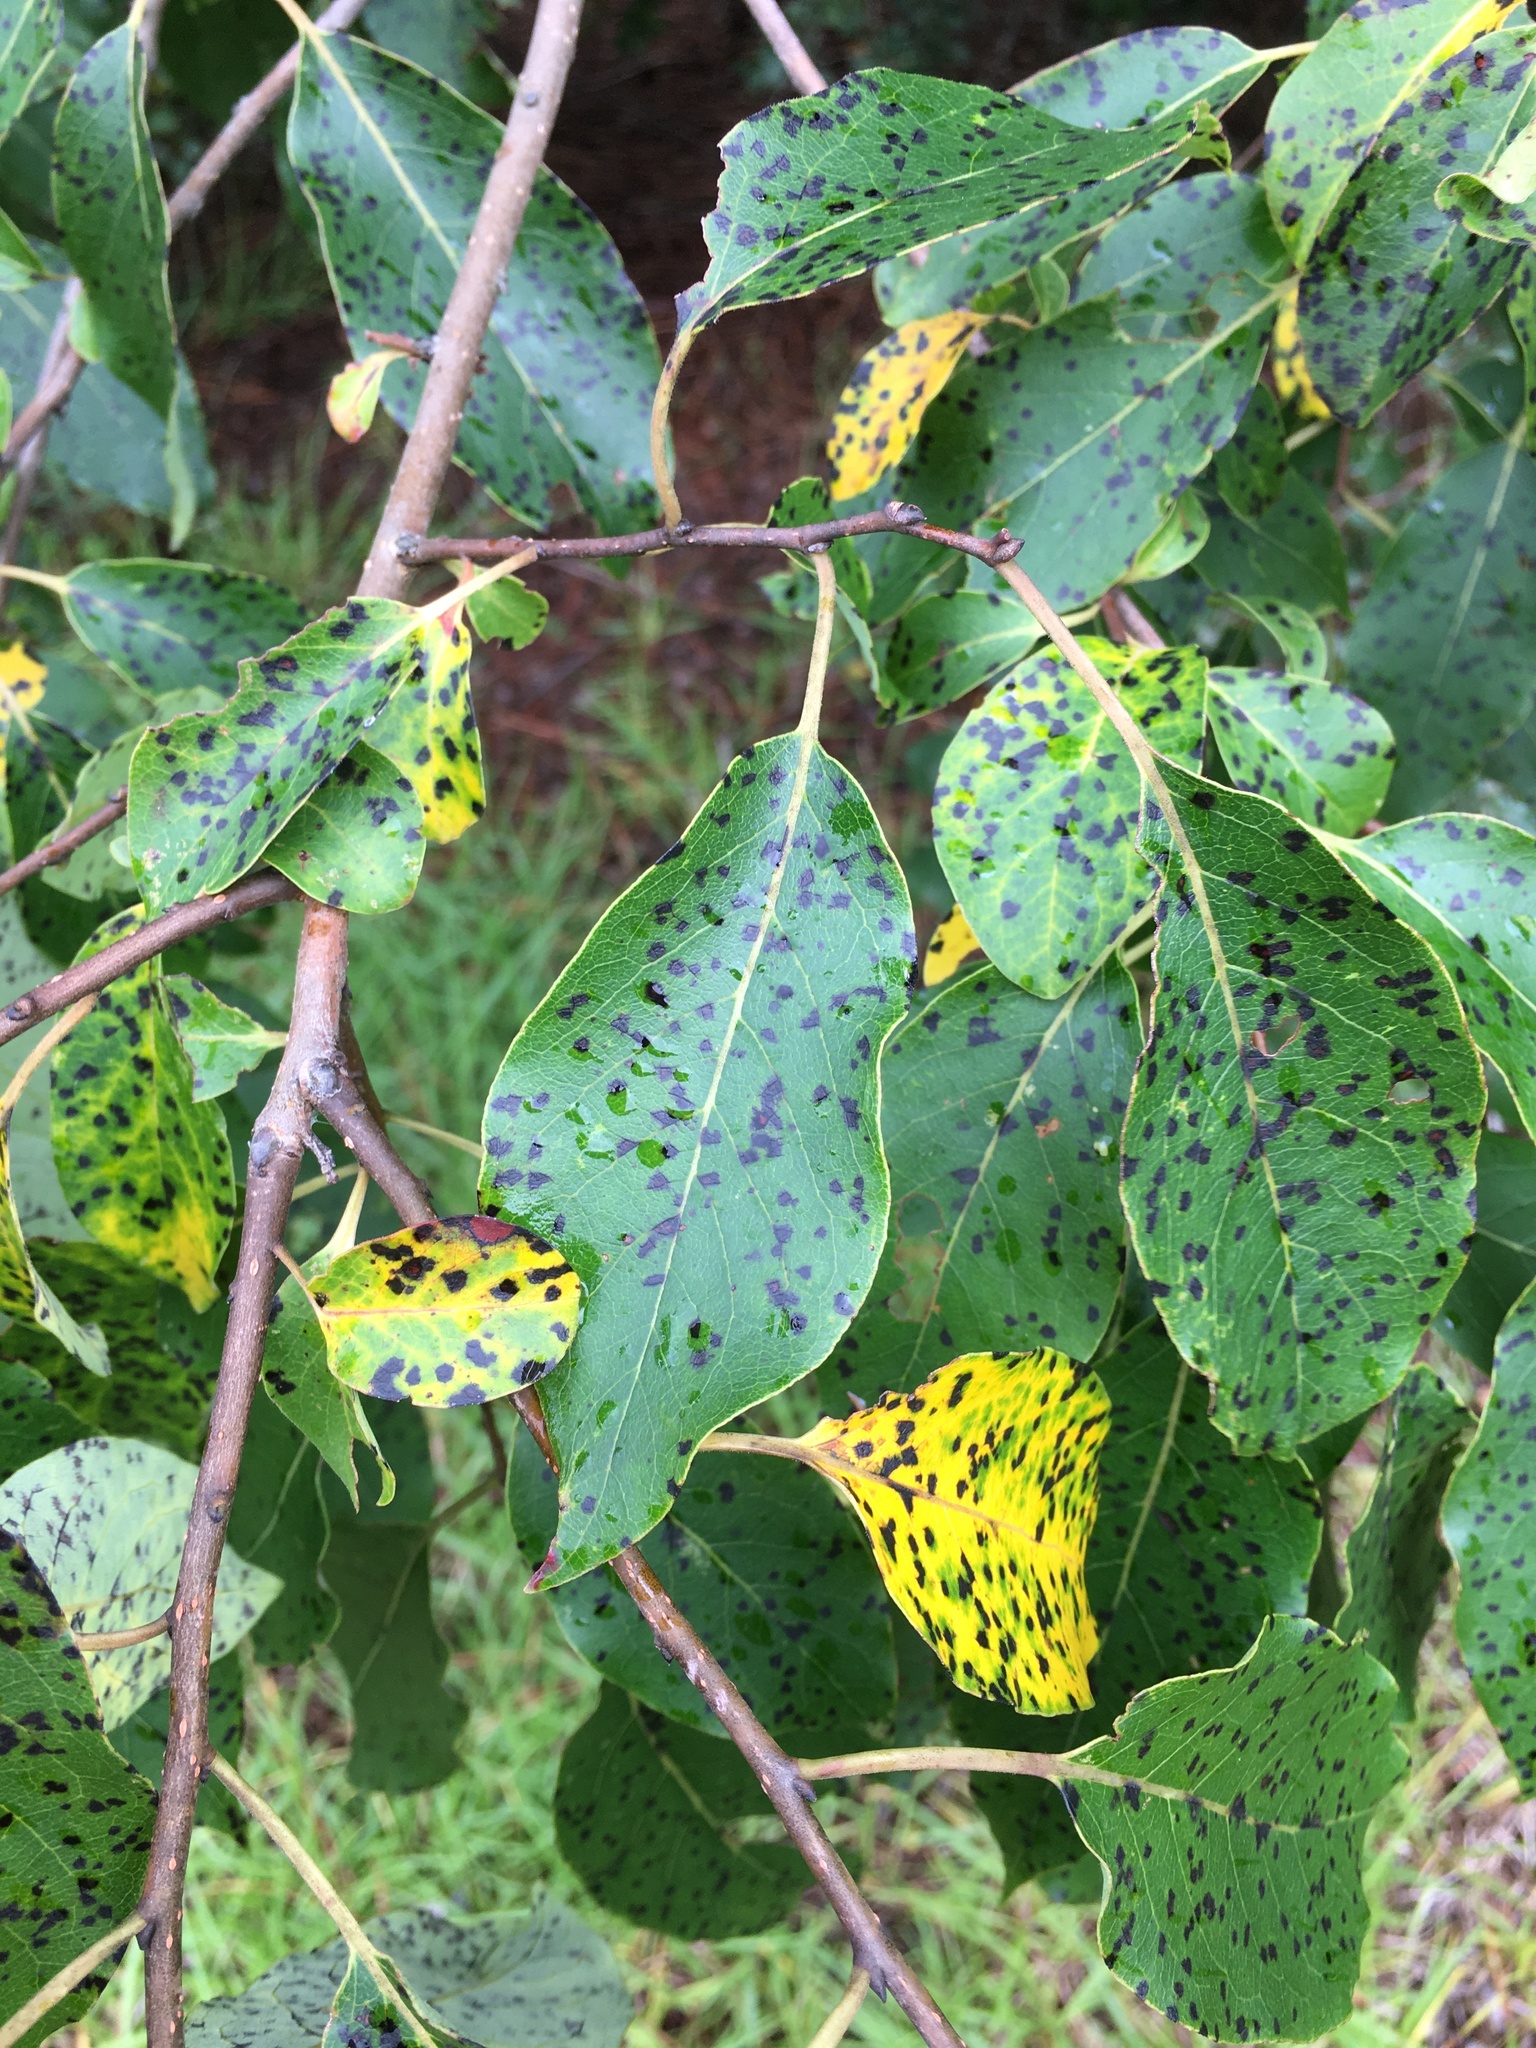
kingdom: Plantae
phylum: Tracheophyta
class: Magnoliopsida
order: Ericales
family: Ebenaceae
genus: Diospyros
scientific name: Diospyros virginiana
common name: Persimmon
